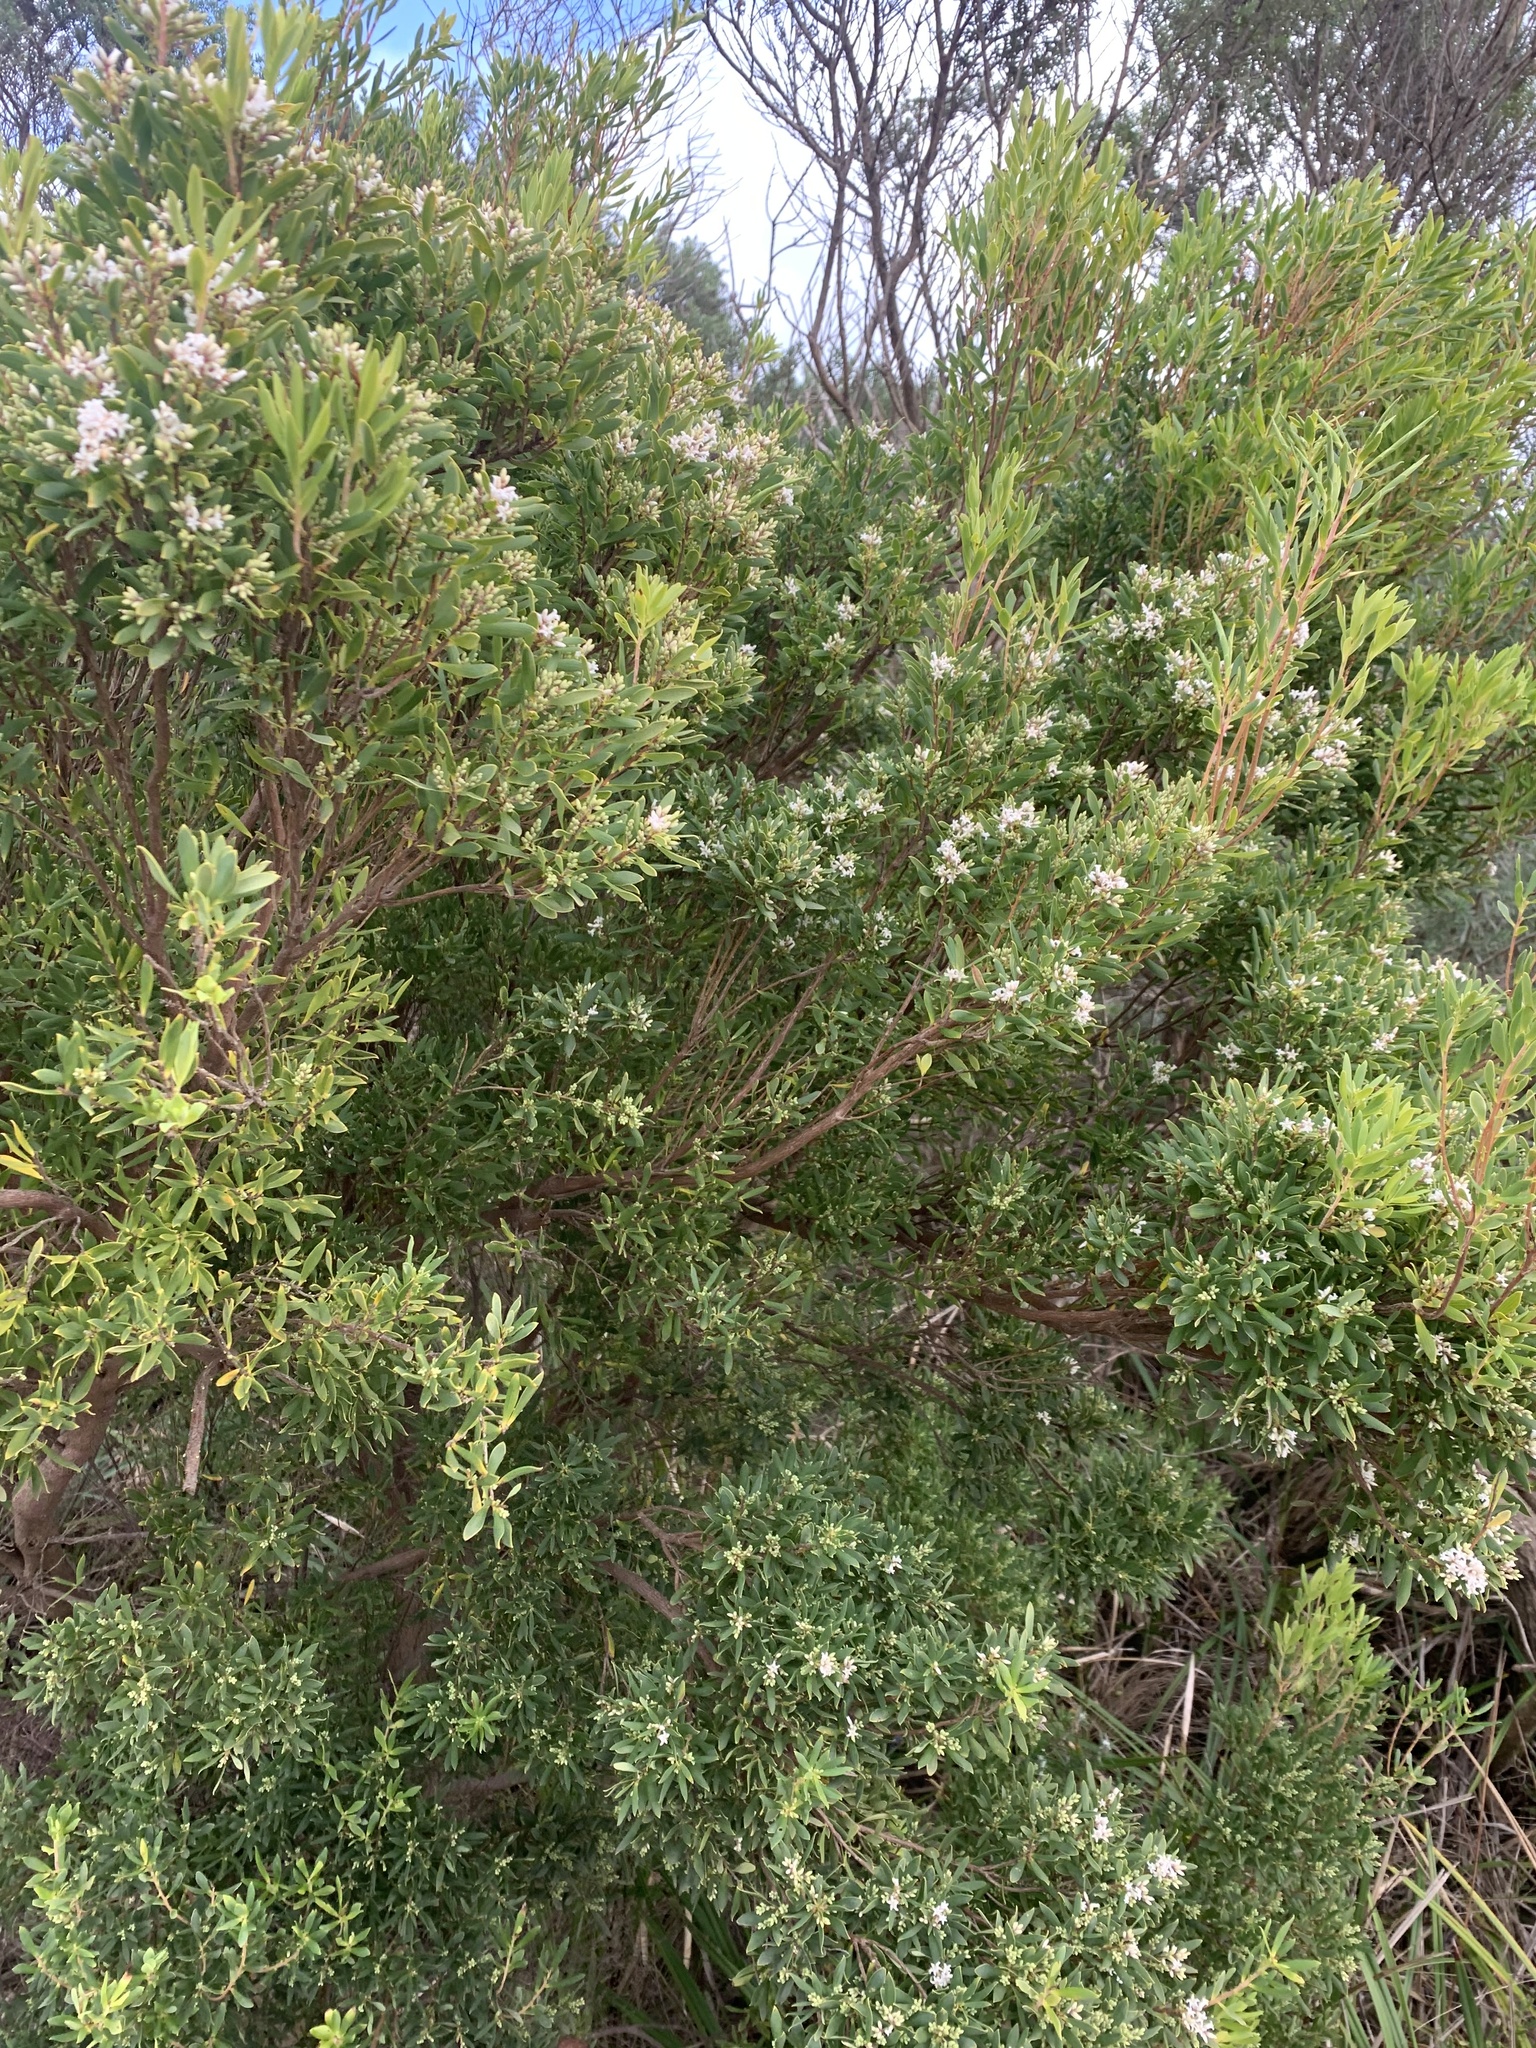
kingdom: Plantae
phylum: Tracheophyta
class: Magnoliopsida
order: Ericales
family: Ericaceae
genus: Leptecophylla
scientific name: Leptecophylla parvifolia
